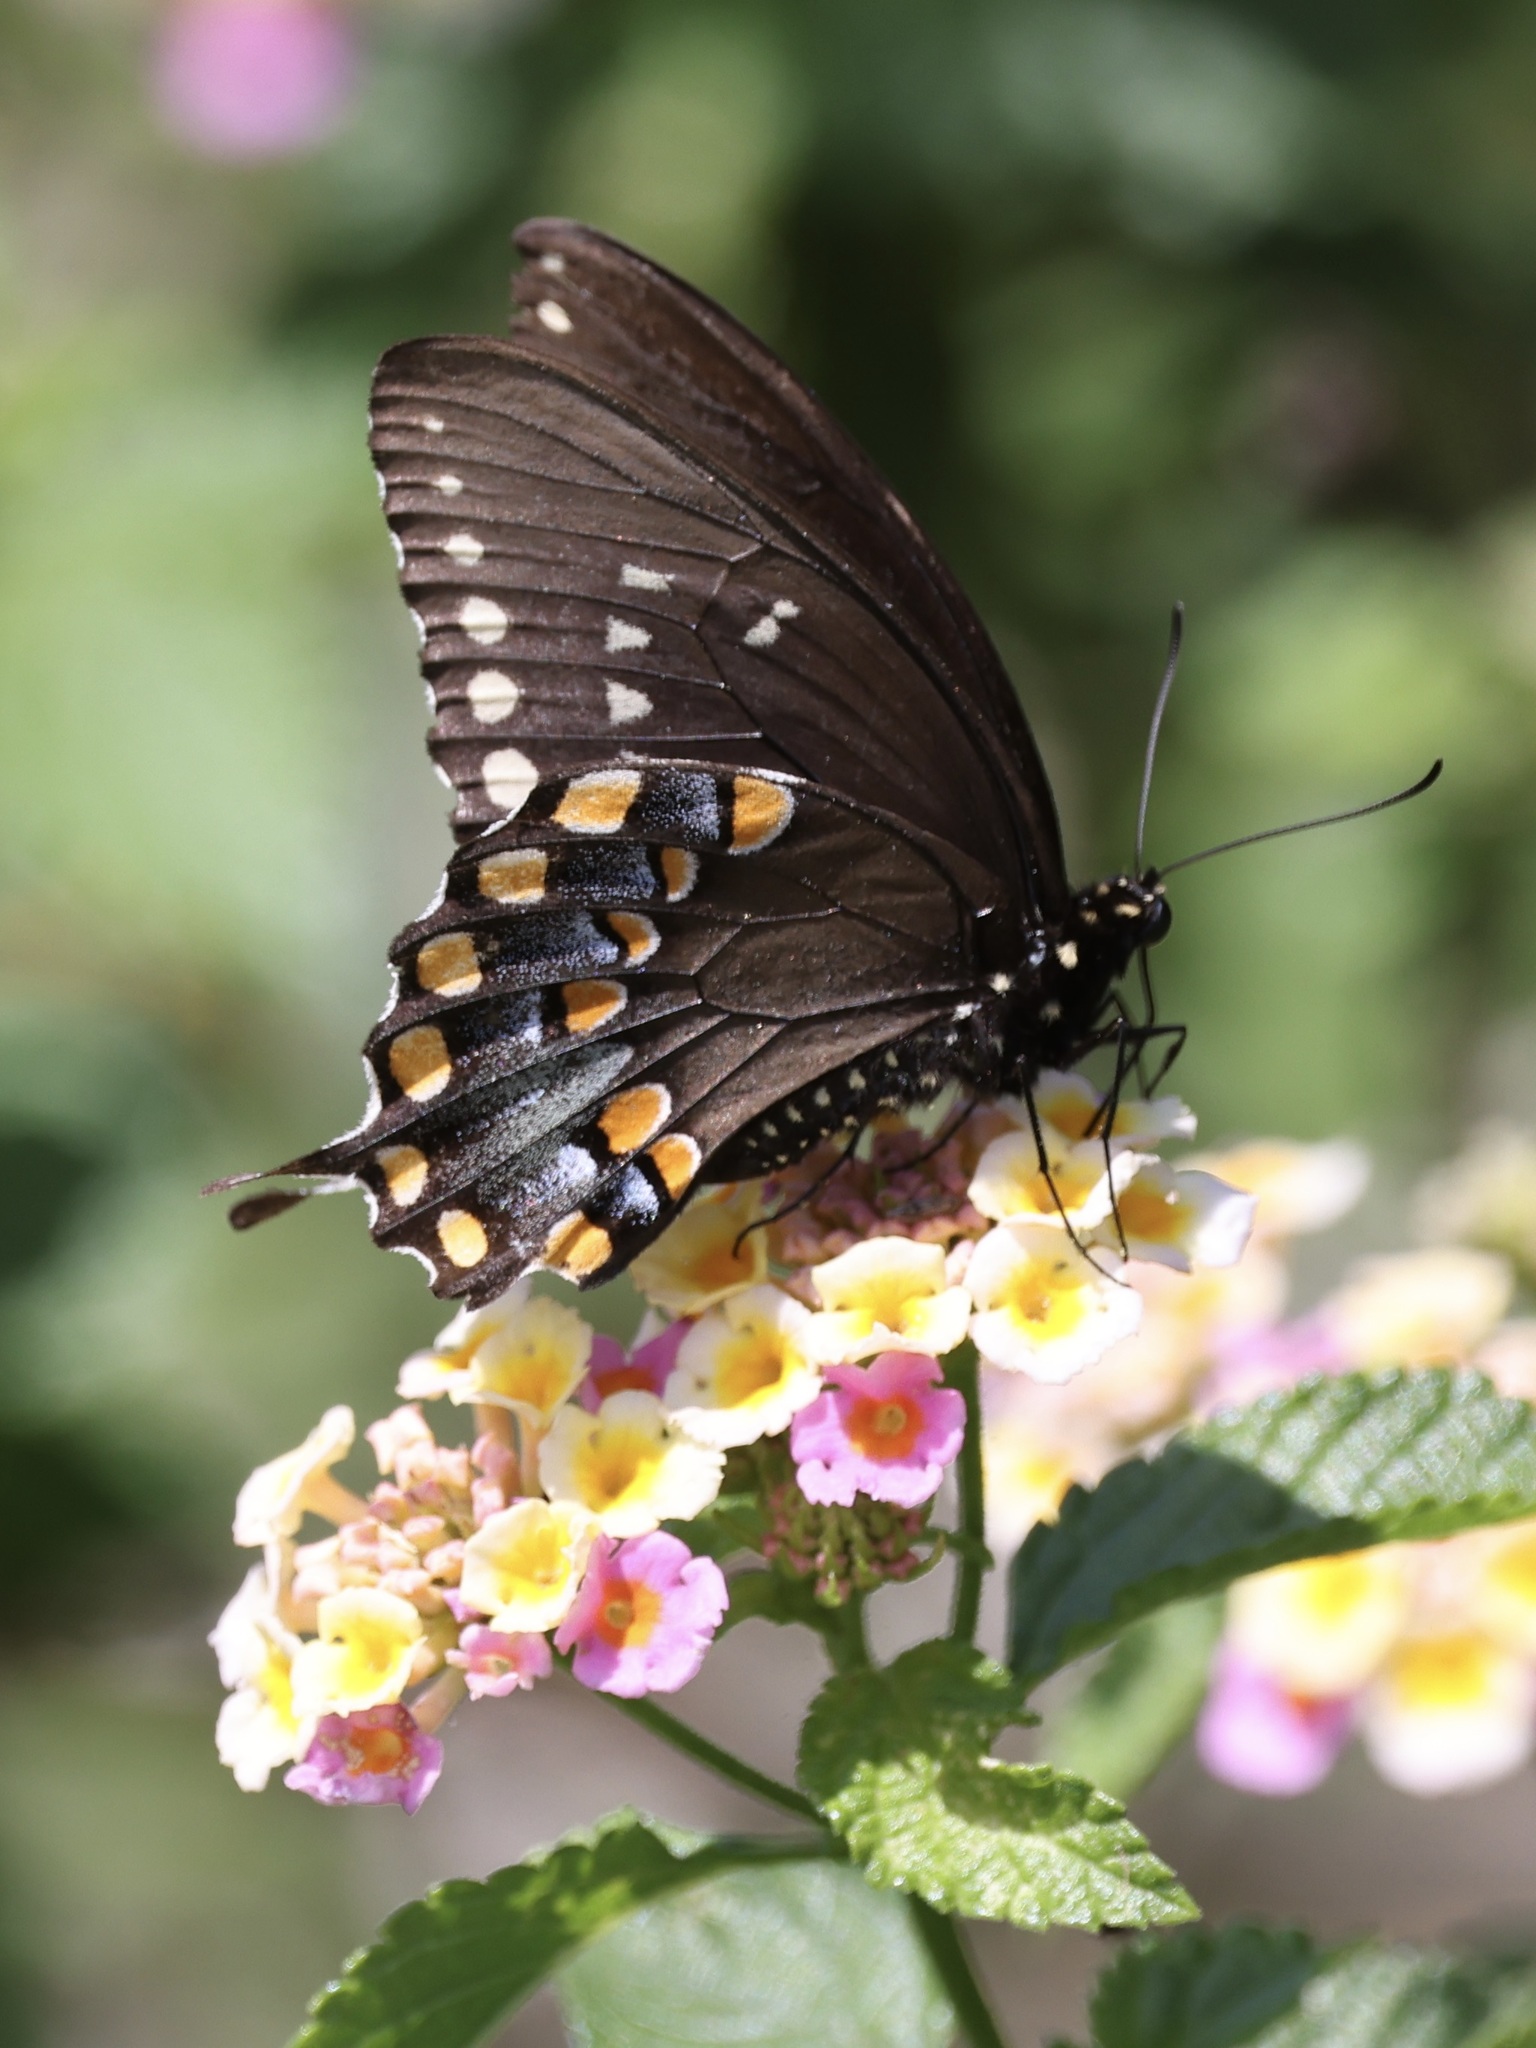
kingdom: Animalia
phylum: Arthropoda
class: Insecta
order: Lepidoptera
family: Papilionidae
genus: Papilio
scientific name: Papilio troilus
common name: Spicebush swallowtail
